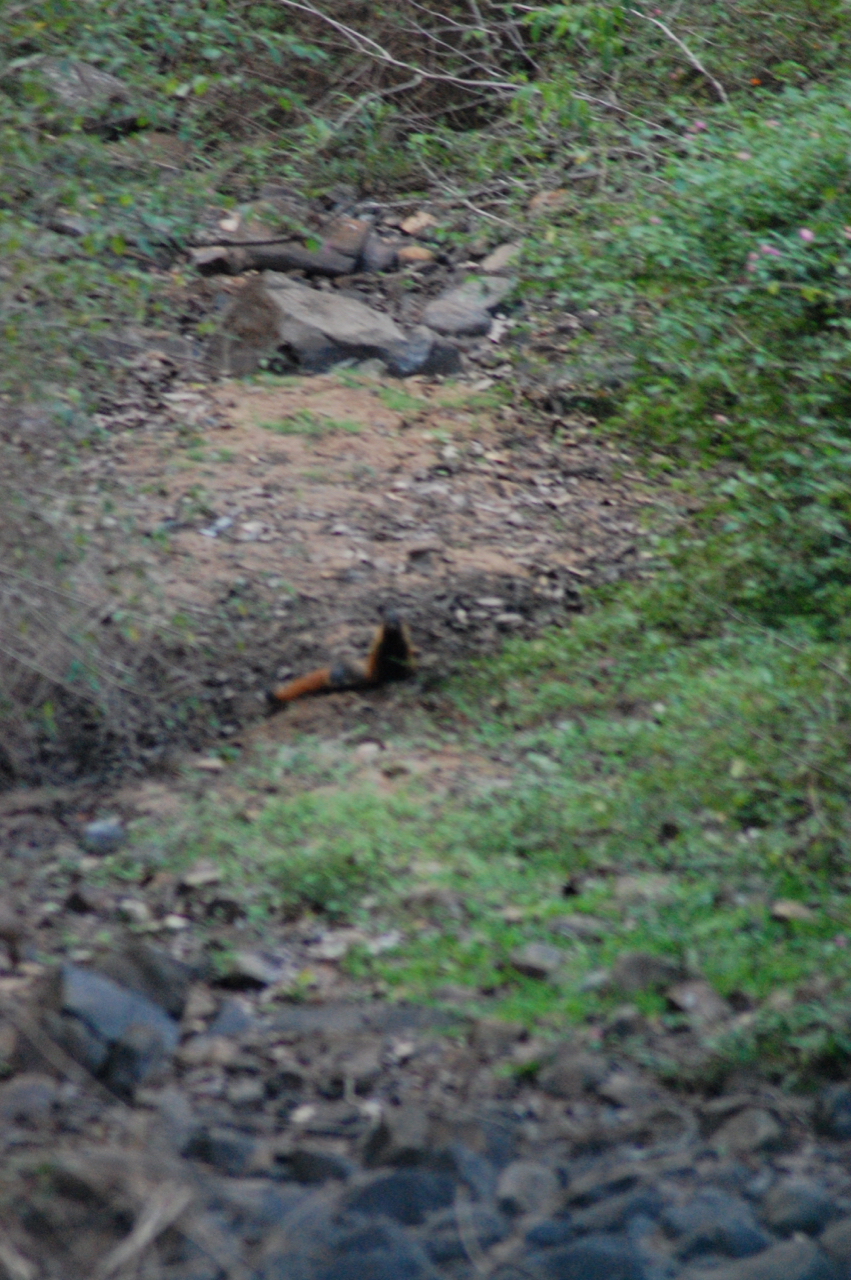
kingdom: Animalia
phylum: Chordata
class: Mammalia
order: Carnivora
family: Herpestidae
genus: Herpestes
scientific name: Herpestes vitticollis
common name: Stripe-necked mongoose
